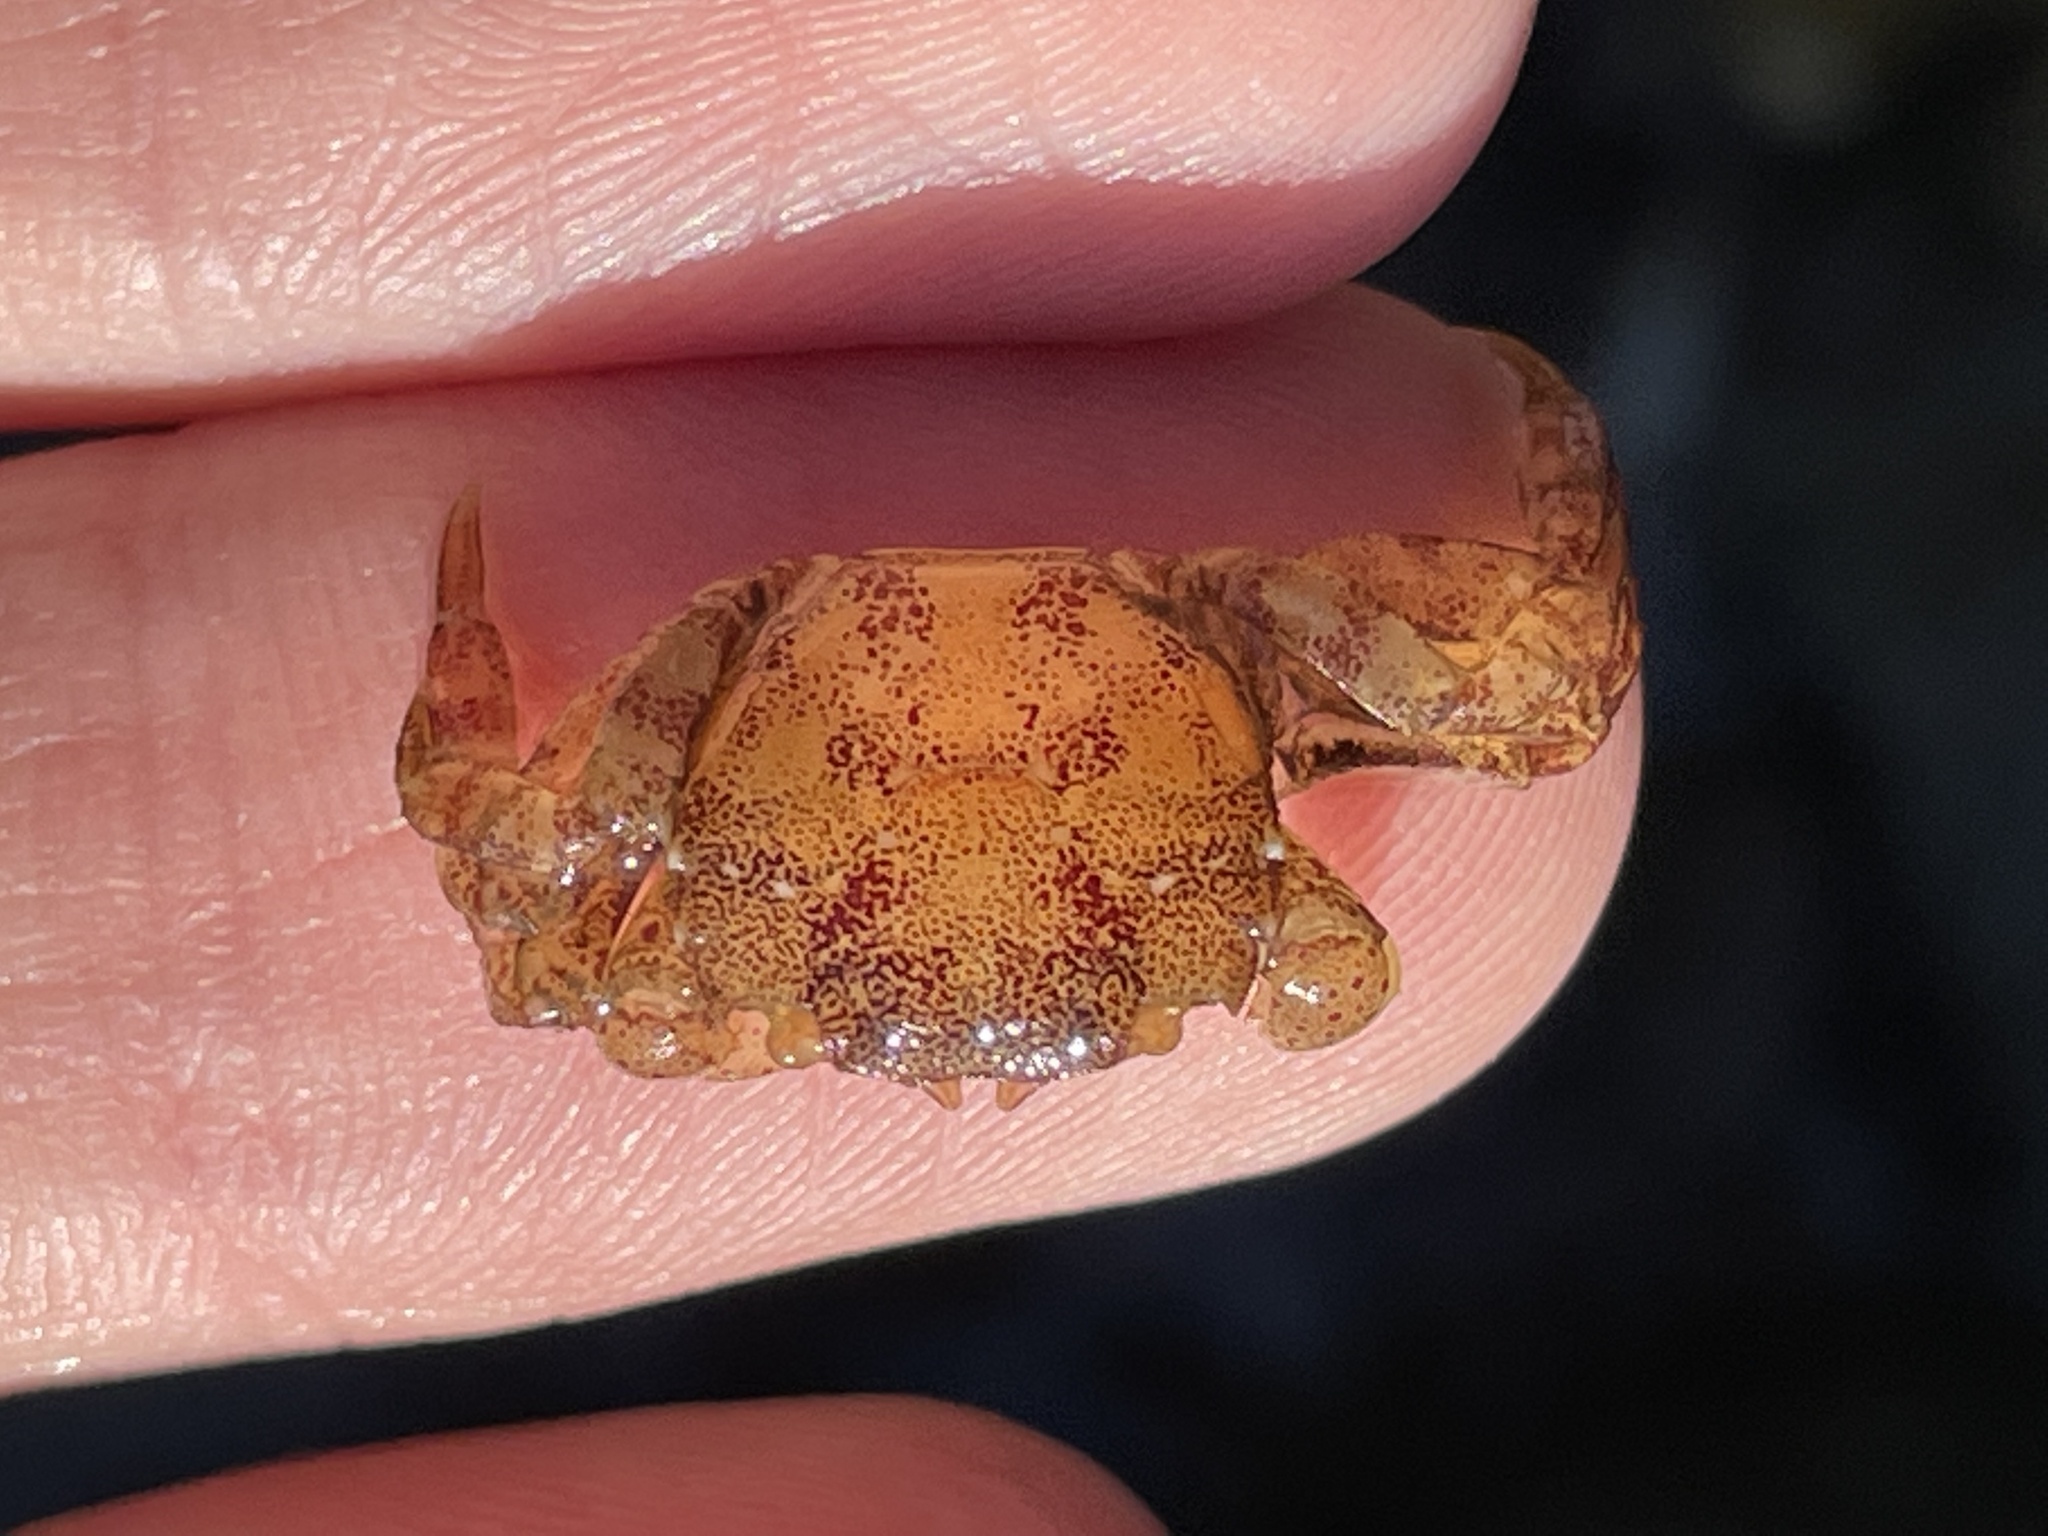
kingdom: Animalia
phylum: Arthropoda
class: Malacostraca
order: Decapoda
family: Varunidae
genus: Hemigrapsus
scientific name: Hemigrapsus sanguineus
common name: Asian shore crab
